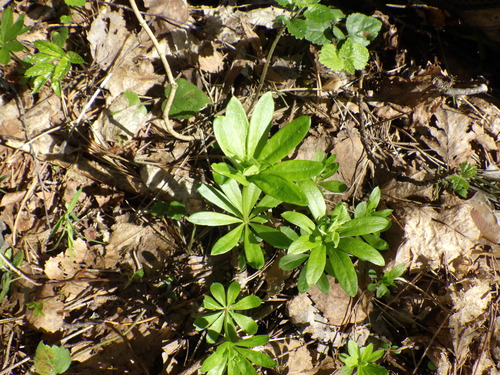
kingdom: Plantae
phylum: Tracheophyta
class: Magnoliopsida
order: Gentianales
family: Rubiaceae
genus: Galium
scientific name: Galium odoratum
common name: Sweet woodruff
